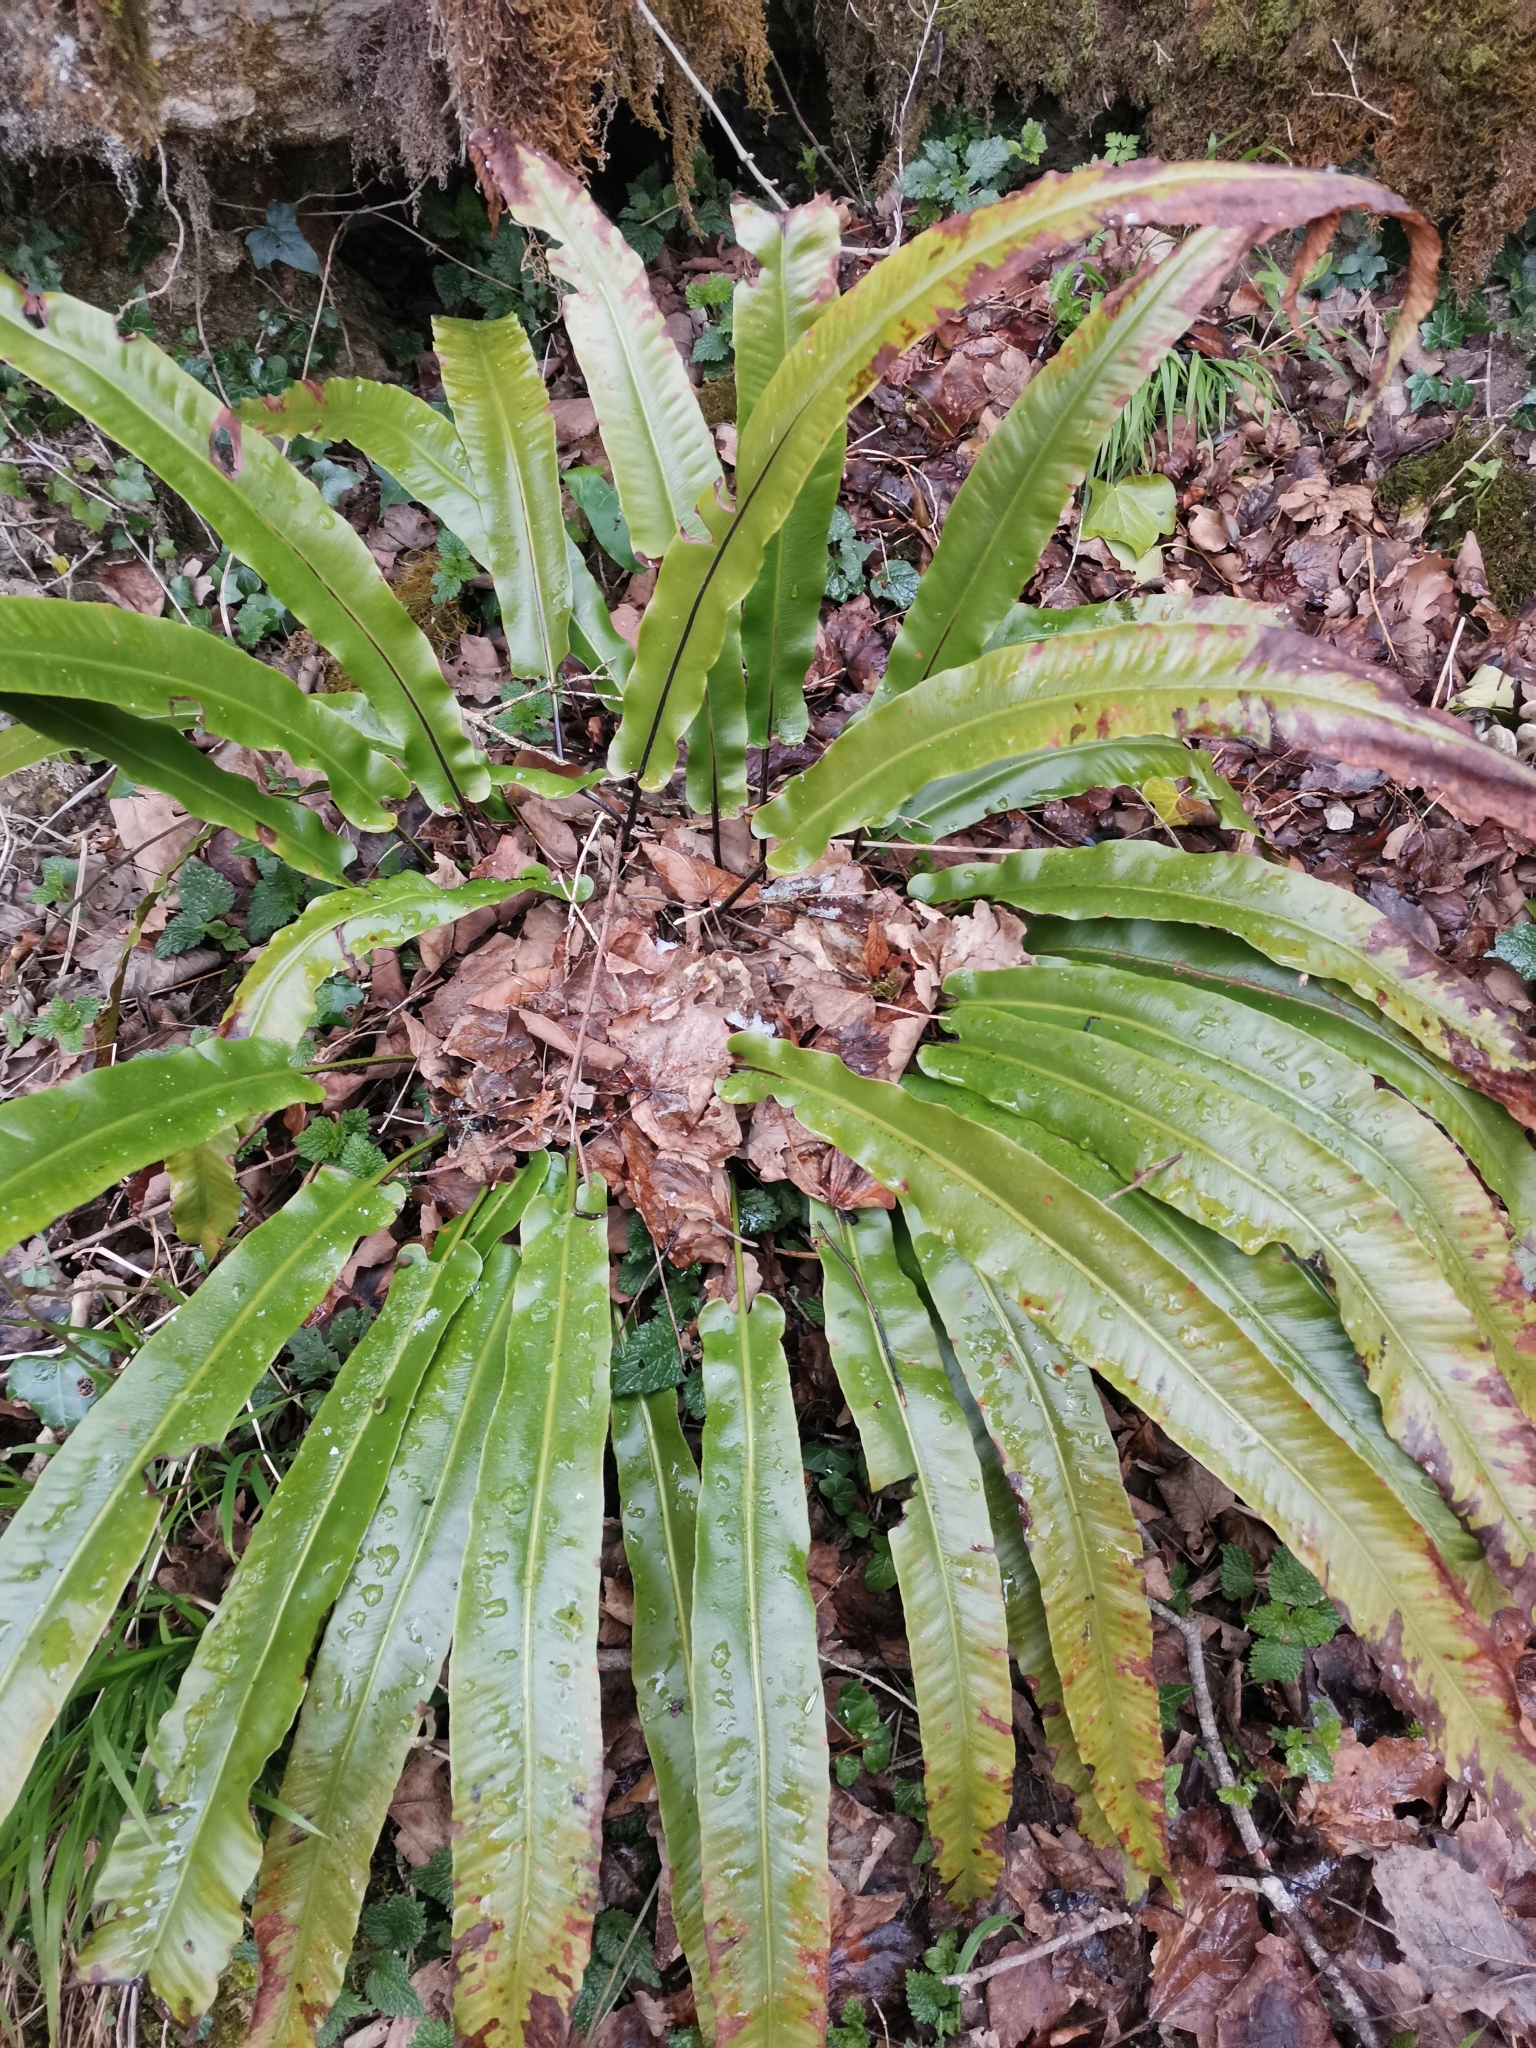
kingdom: Plantae
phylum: Tracheophyta
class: Polypodiopsida
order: Polypodiales
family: Aspleniaceae
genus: Asplenium
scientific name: Asplenium scolopendrium
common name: Hart's-tongue fern
